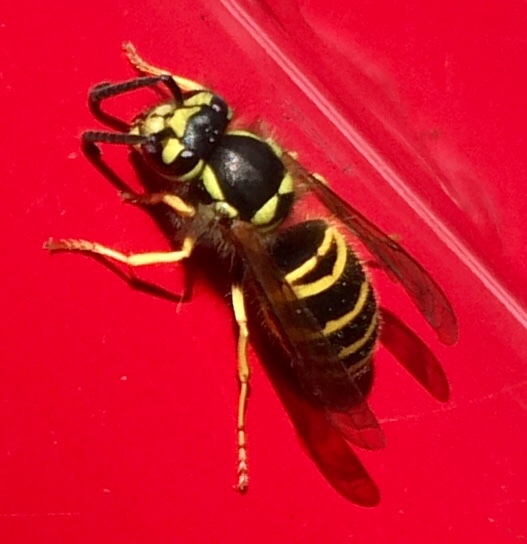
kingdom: Animalia
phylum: Arthropoda
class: Insecta
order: Hymenoptera
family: Vespidae
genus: Vespula
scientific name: Vespula maculifrons
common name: Eastern yellowjacket
